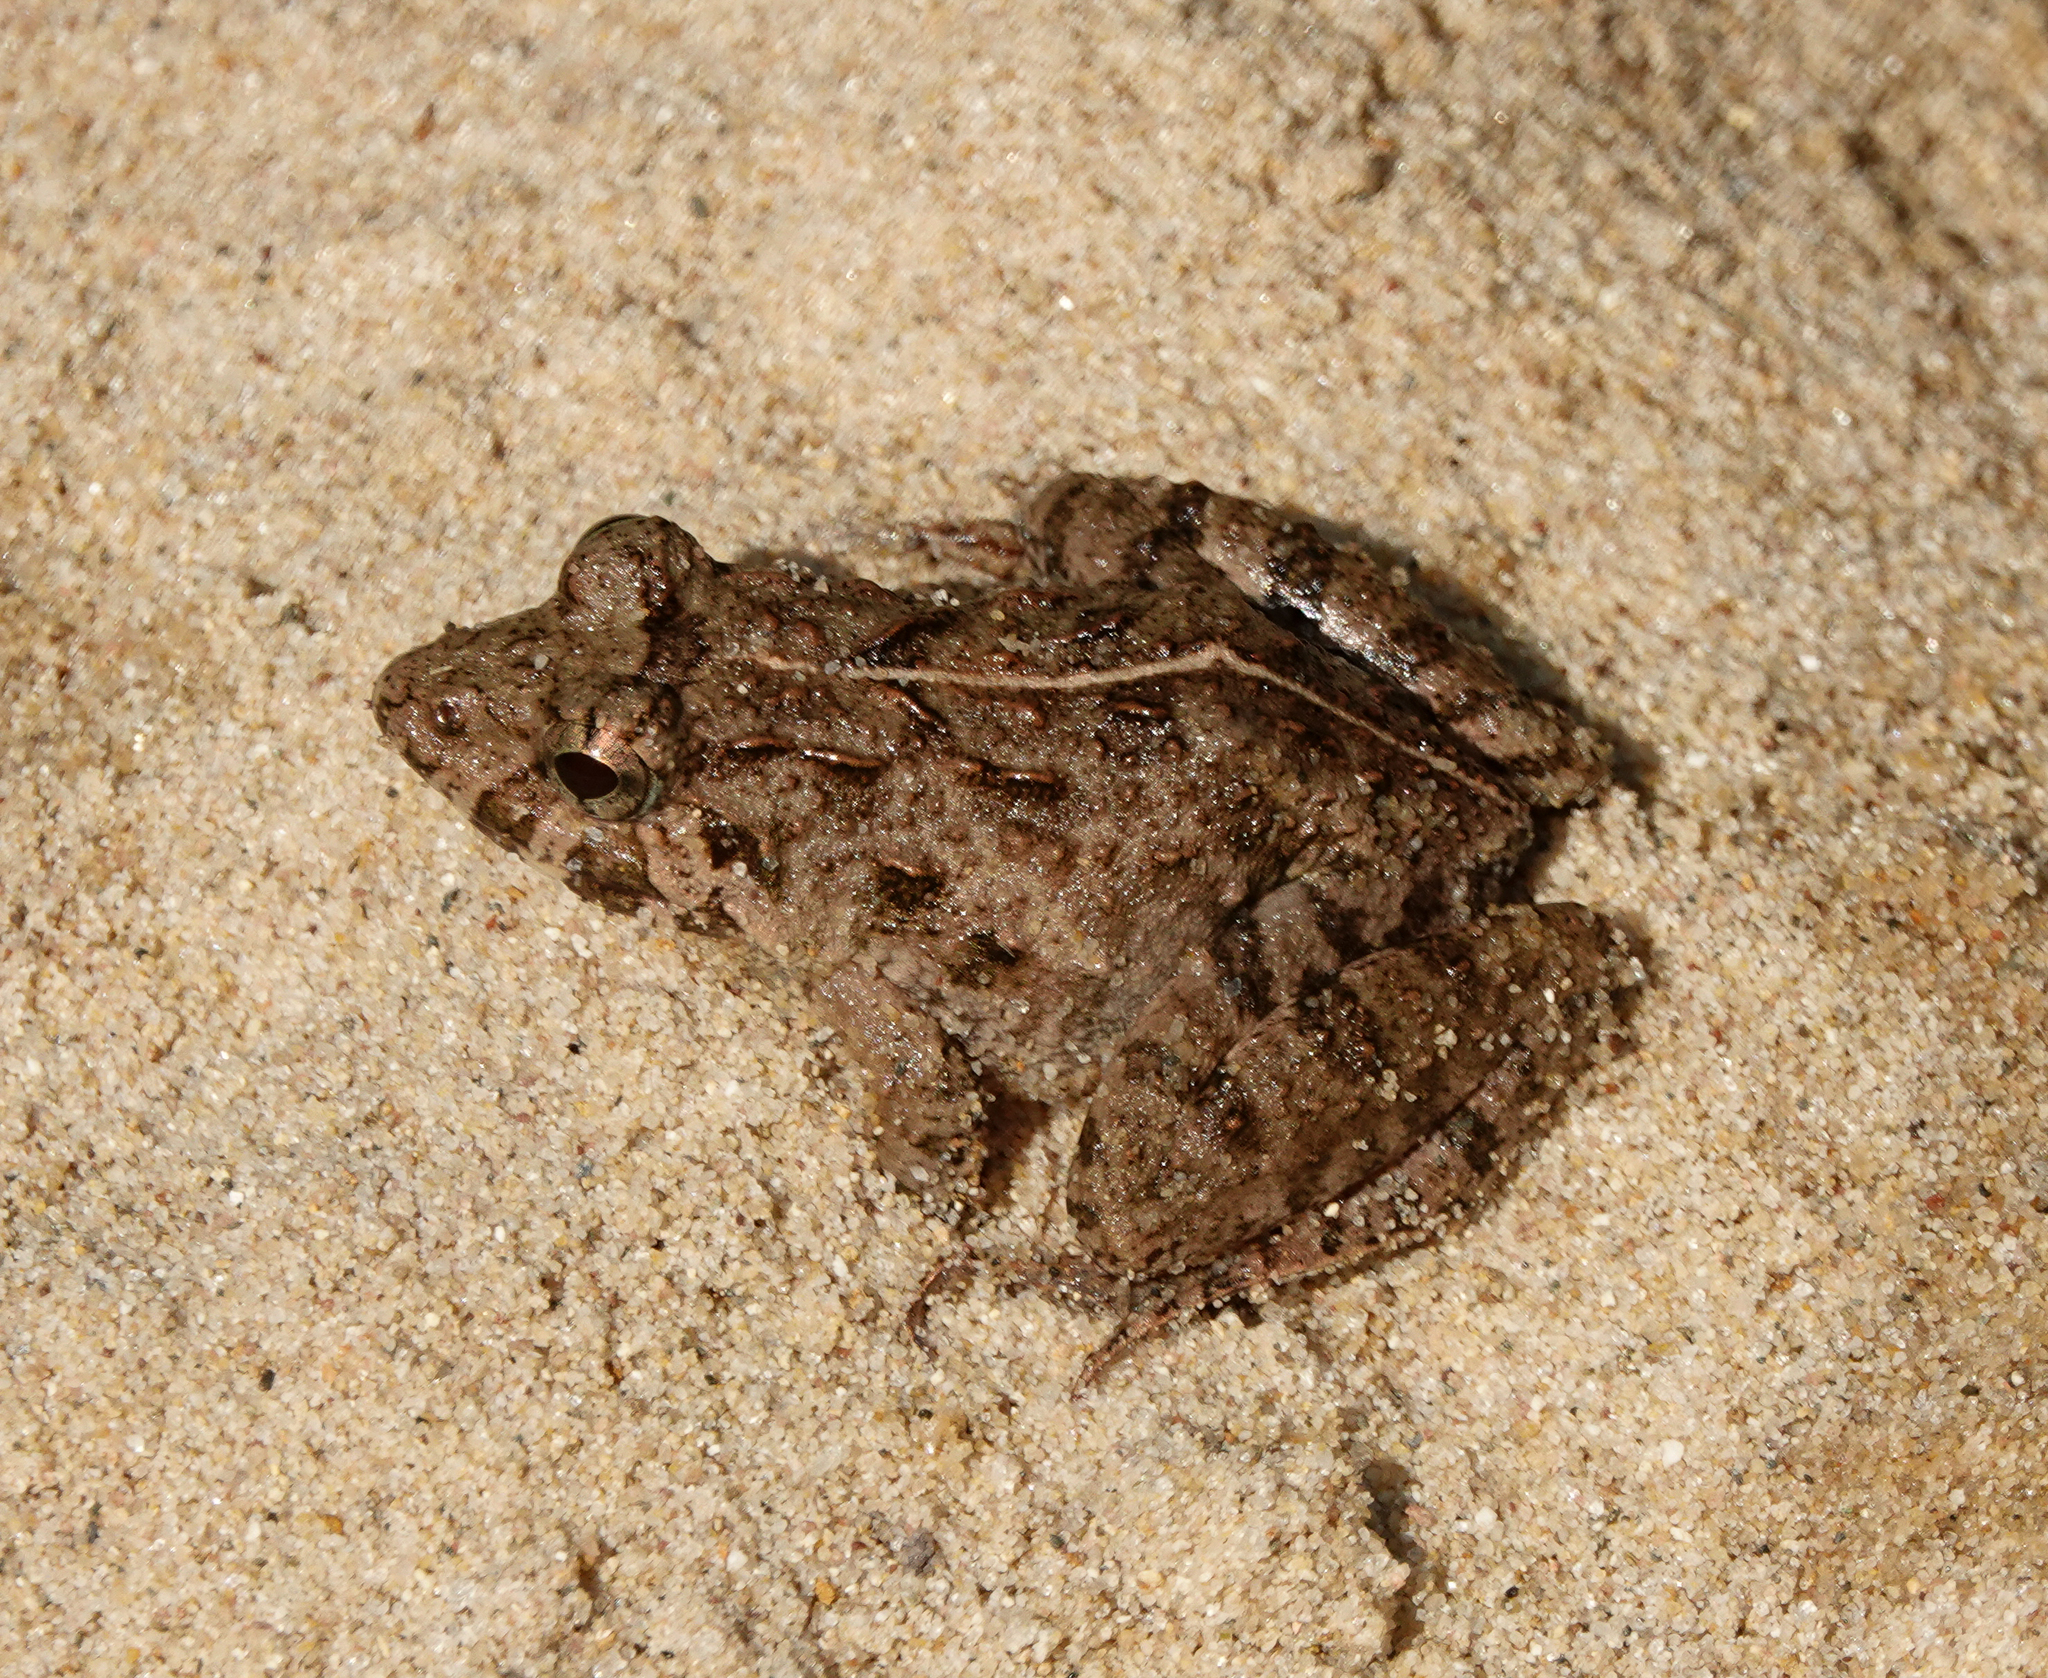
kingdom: Animalia
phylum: Chordata
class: Amphibia
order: Anura
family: Dicroglossidae
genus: Fejervarya
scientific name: Fejervarya limnocharis
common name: Asian grass frog/common pond frog/field frog/grass frog/indian rice frog
